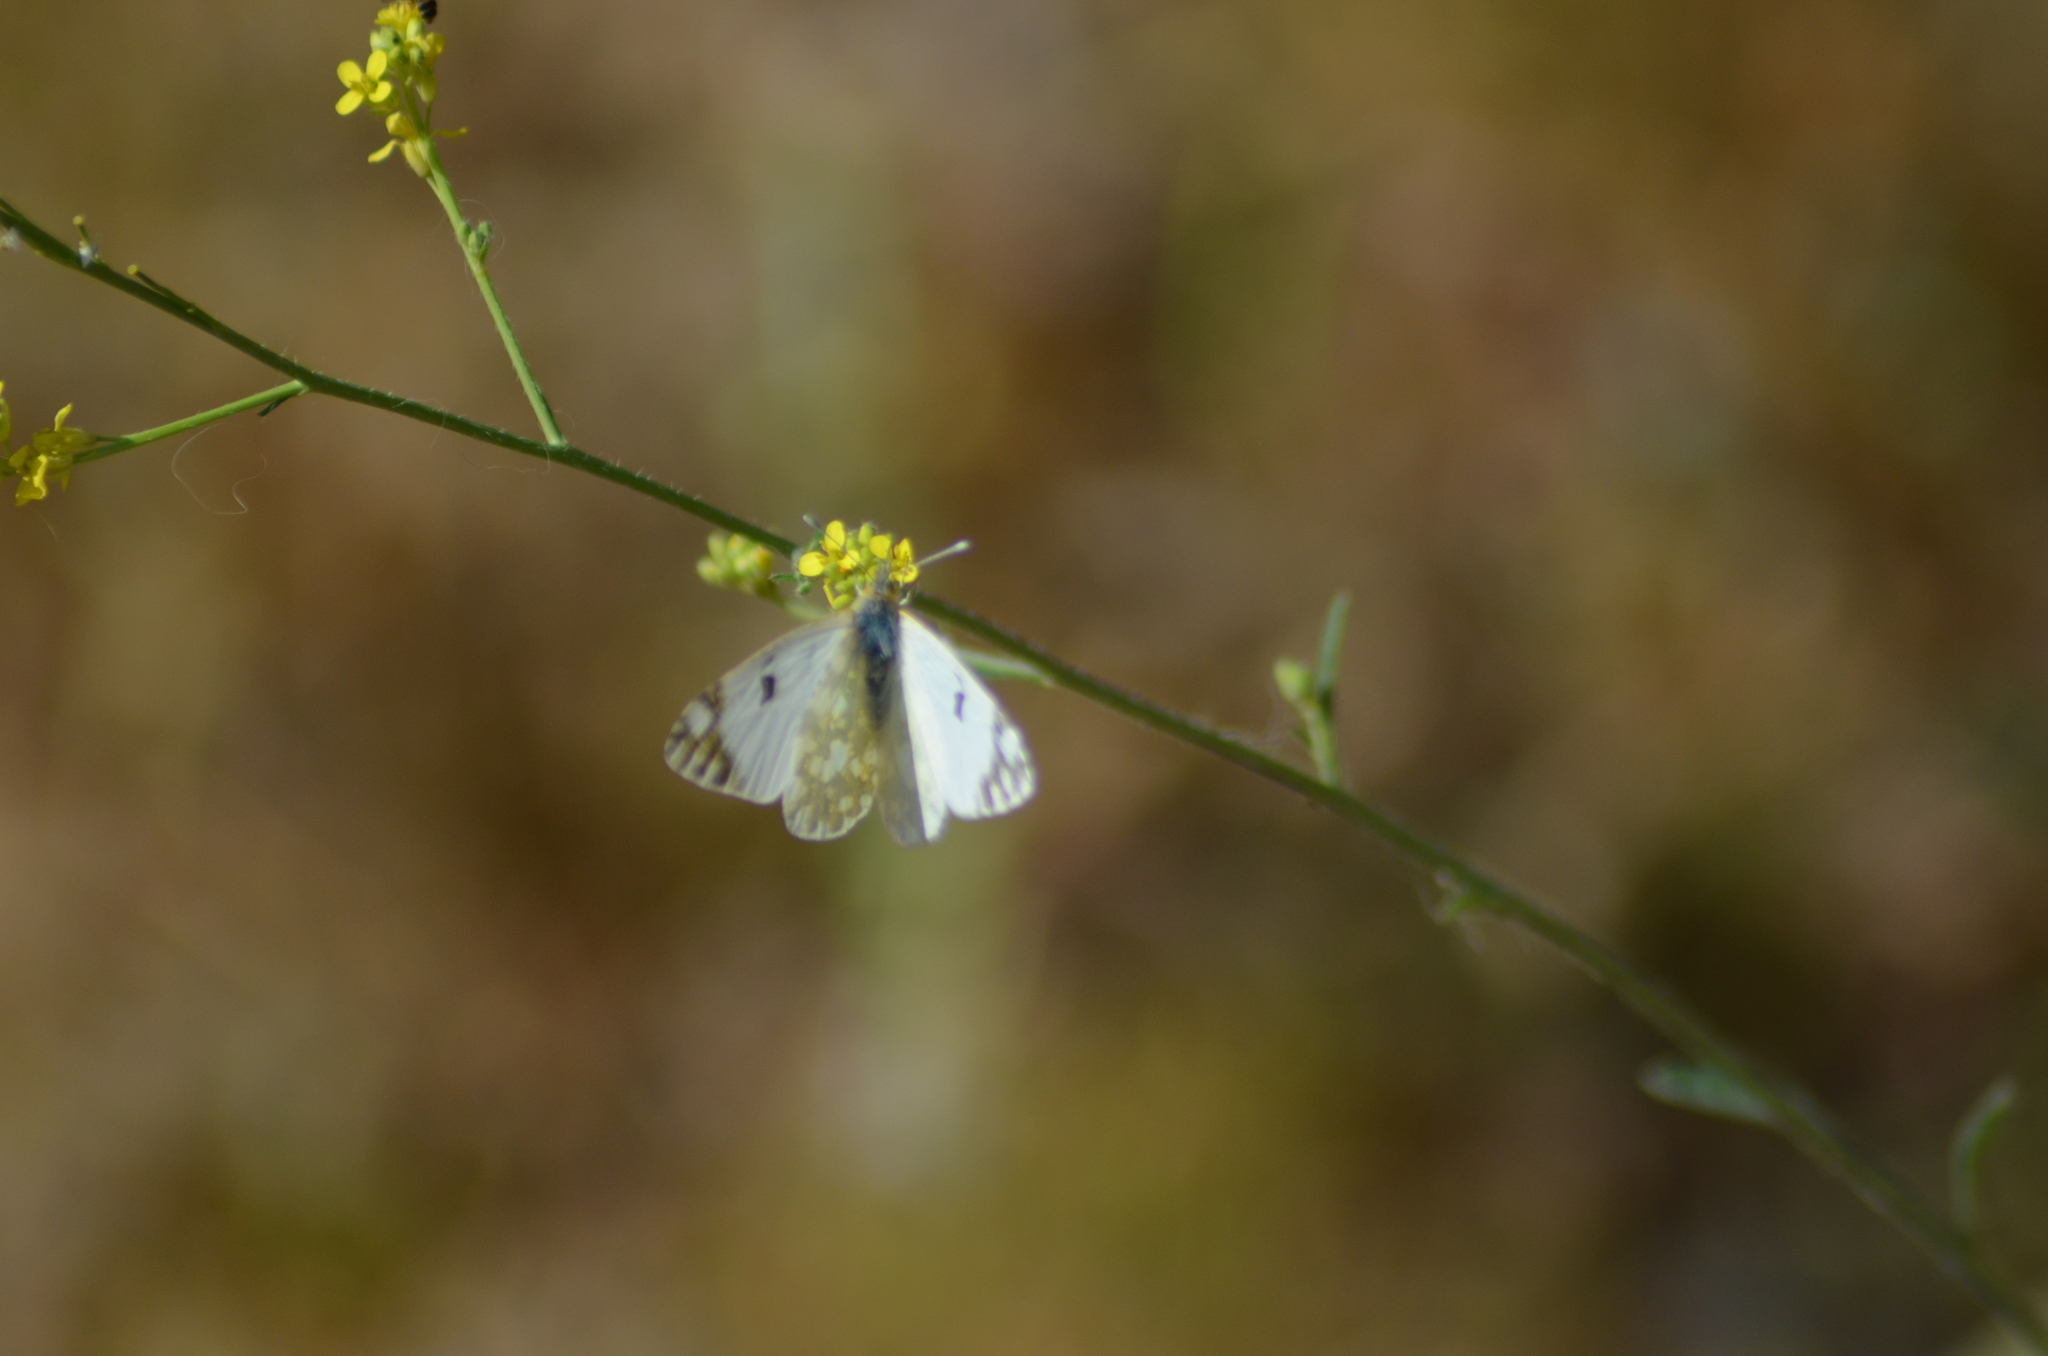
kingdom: Animalia
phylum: Arthropoda
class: Insecta
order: Lepidoptera
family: Pieridae
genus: Euchloe
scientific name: Euchloe crameri
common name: Western dappled white
